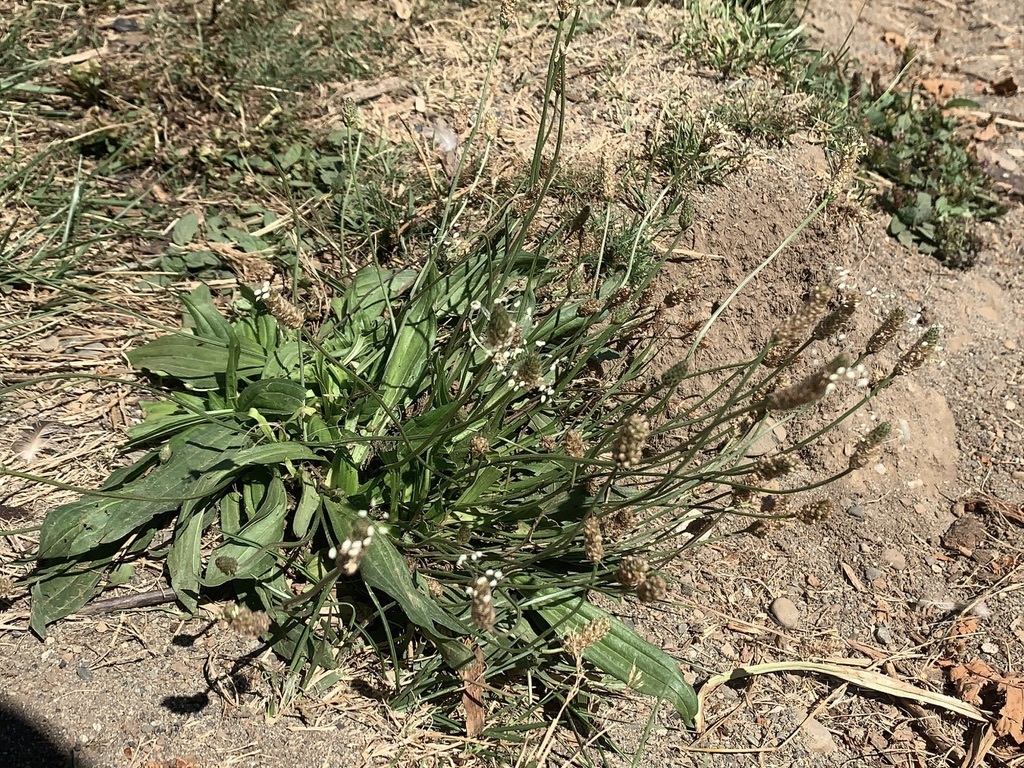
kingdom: Plantae
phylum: Tracheophyta
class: Magnoliopsida
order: Lamiales
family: Plantaginaceae
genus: Plantago
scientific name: Plantago lanceolata
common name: Ribwort plantain
